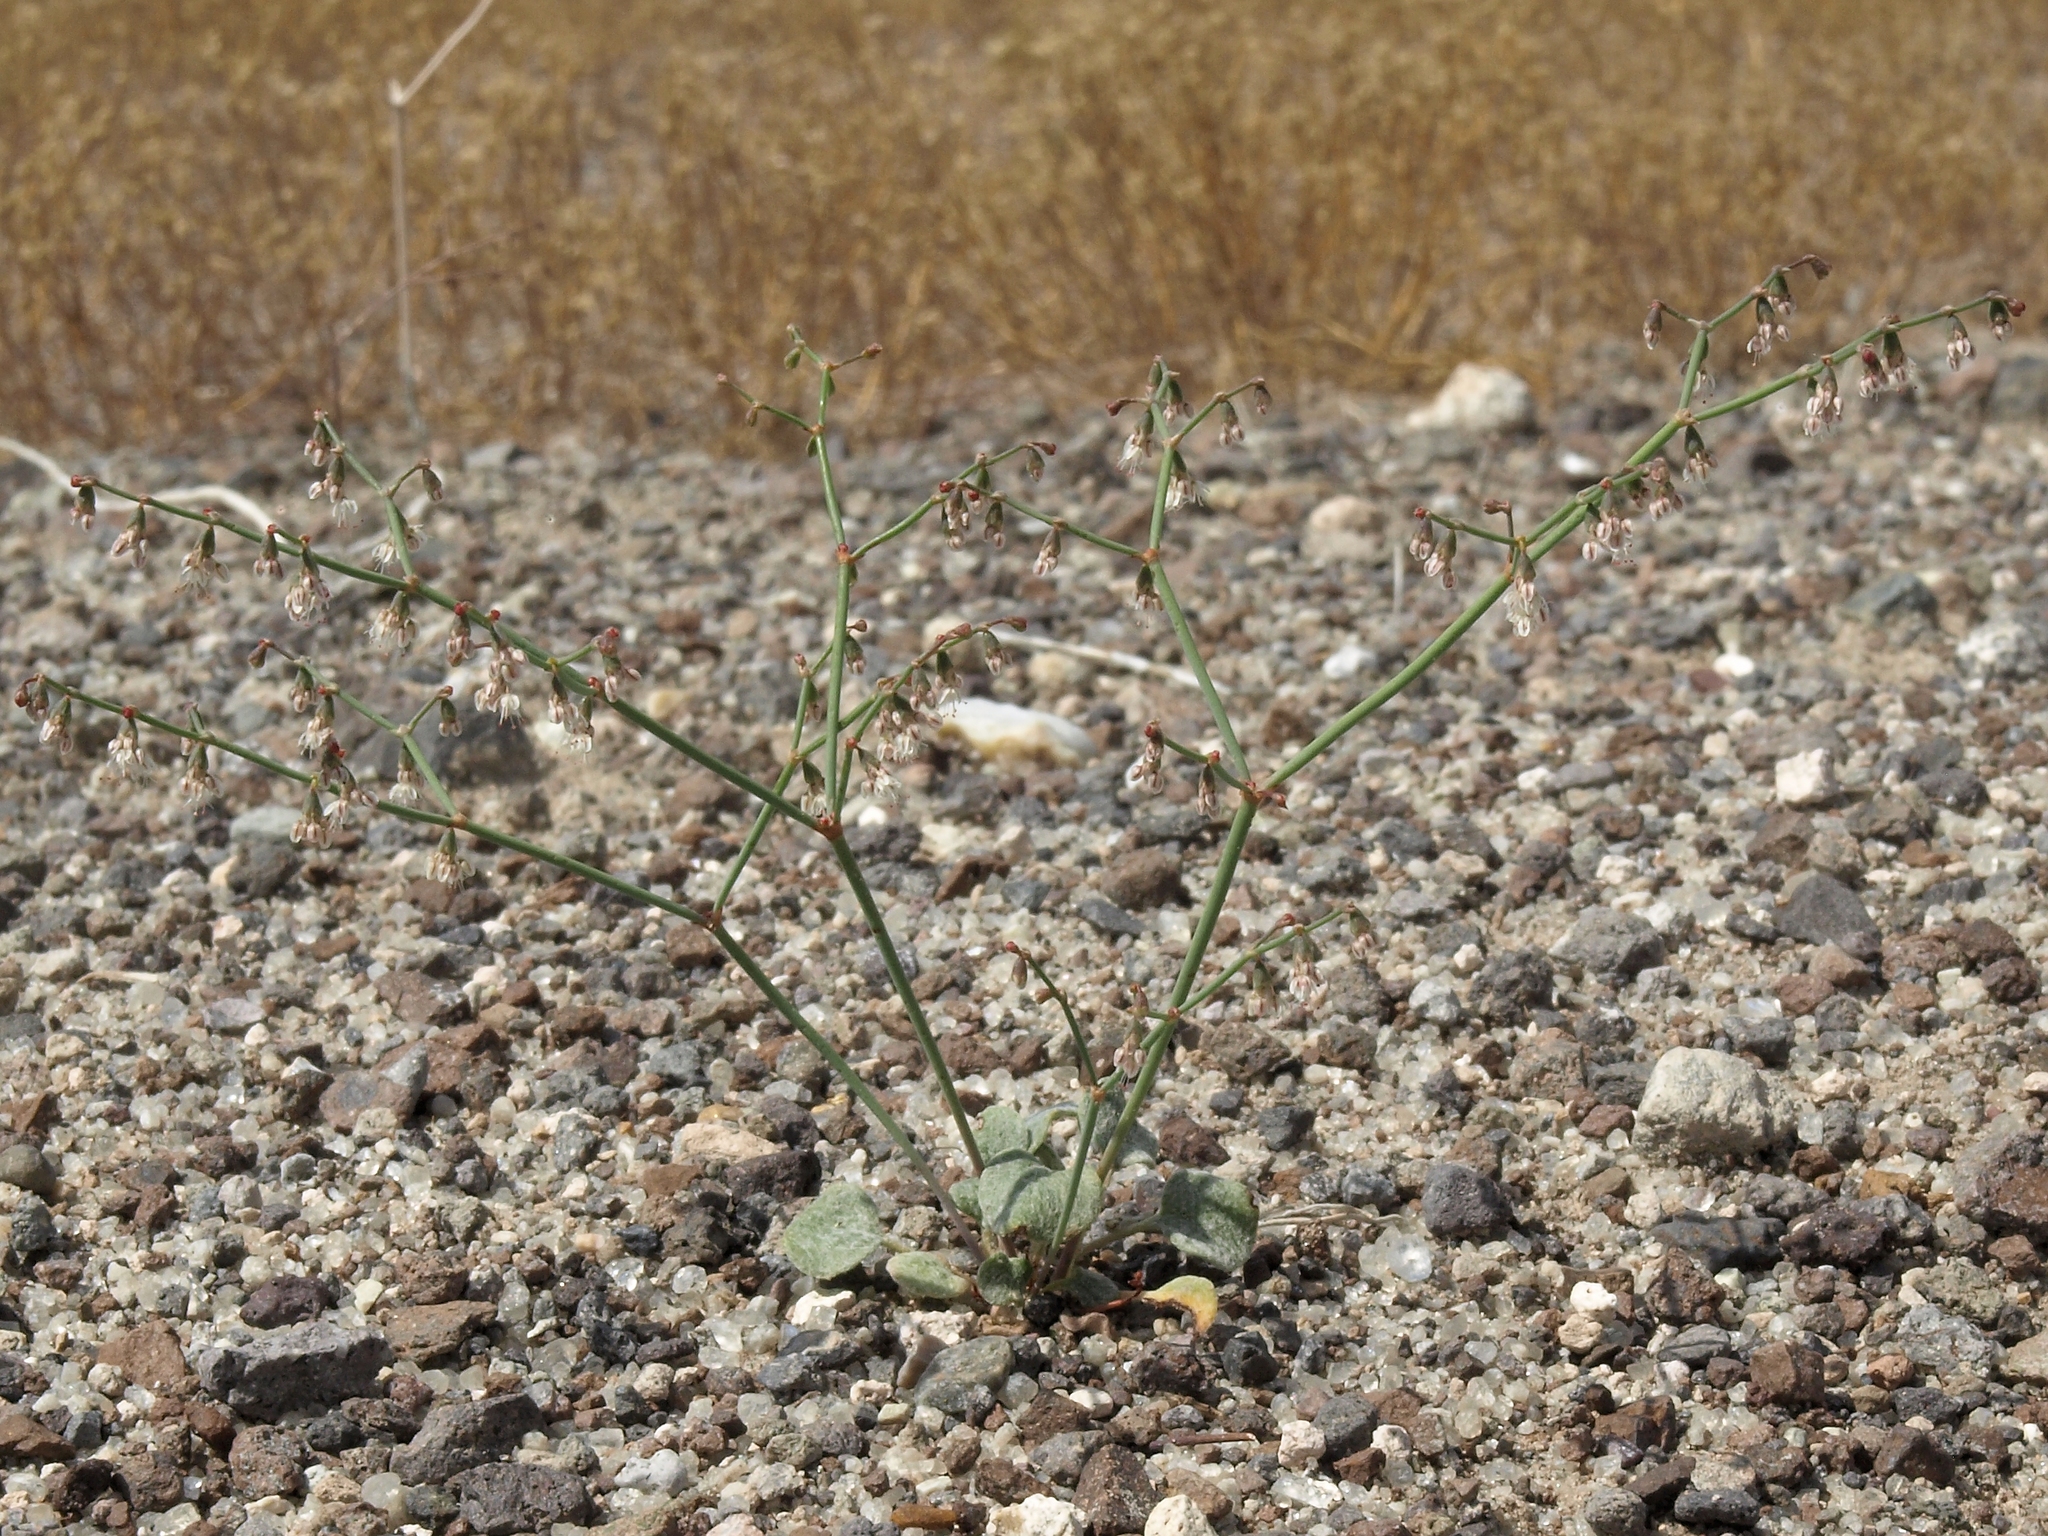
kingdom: Plantae
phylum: Tracheophyta
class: Magnoliopsida
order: Caryophyllales
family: Polygonaceae
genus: Eriogonum
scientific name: Eriogonum deflexum
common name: Skeleton-weed
